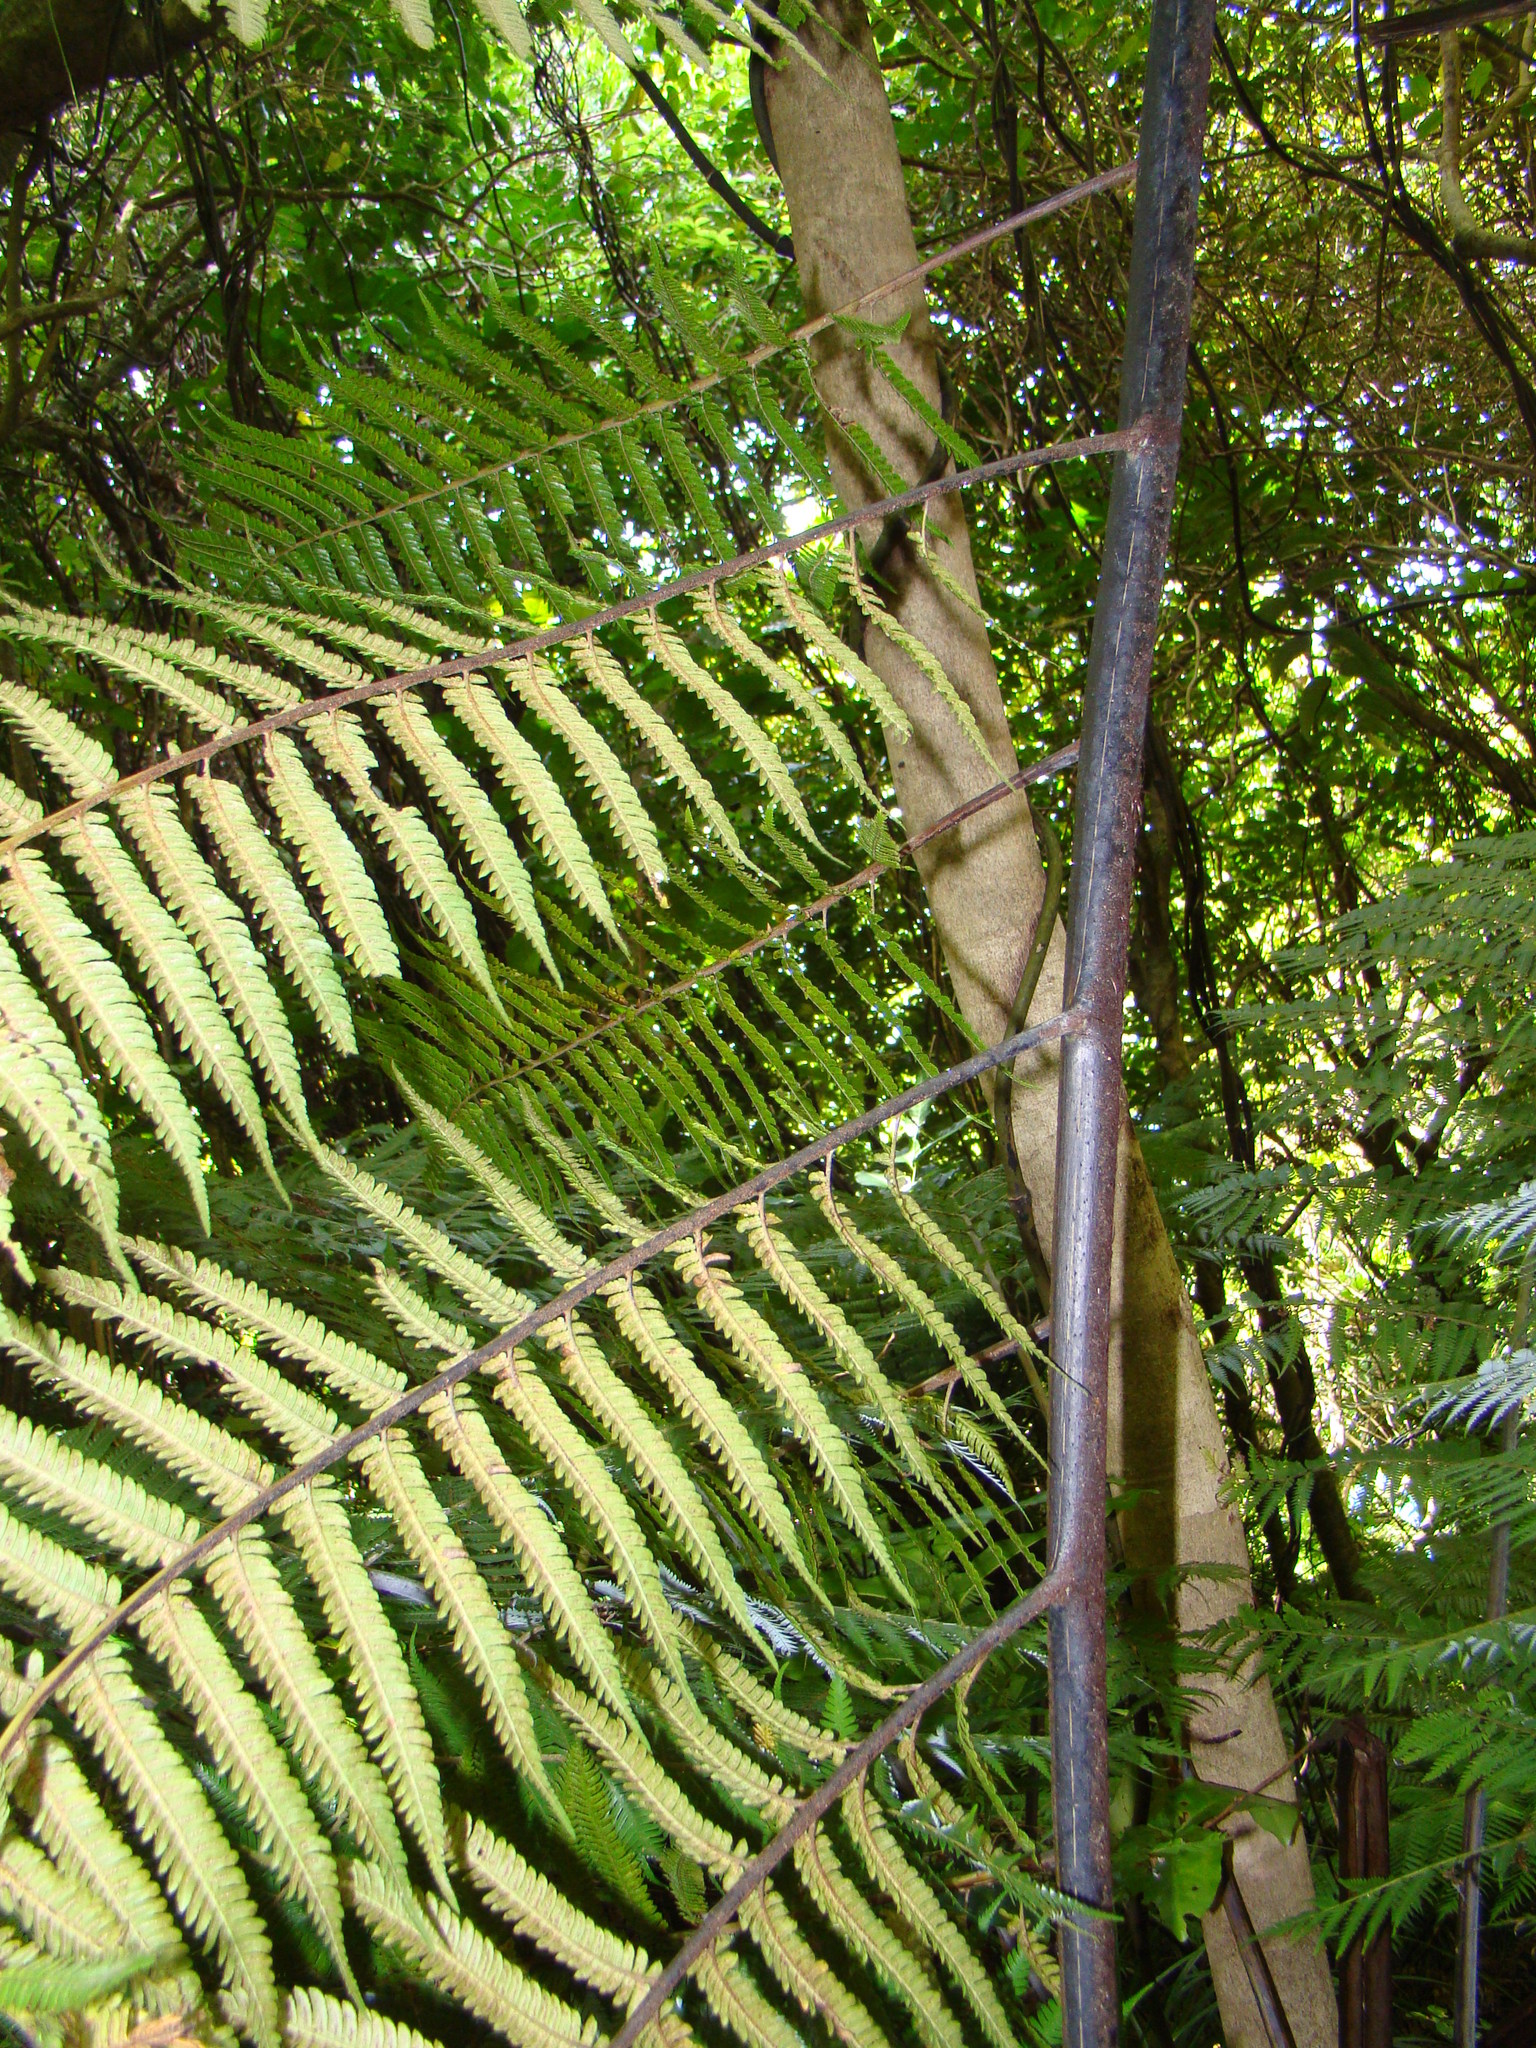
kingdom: Plantae
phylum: Tracheophyta
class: Polypodiopsida
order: Cyatheales
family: Cyatheaceae
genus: Sphaeropteris
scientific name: Sphaeropteris medullaris
